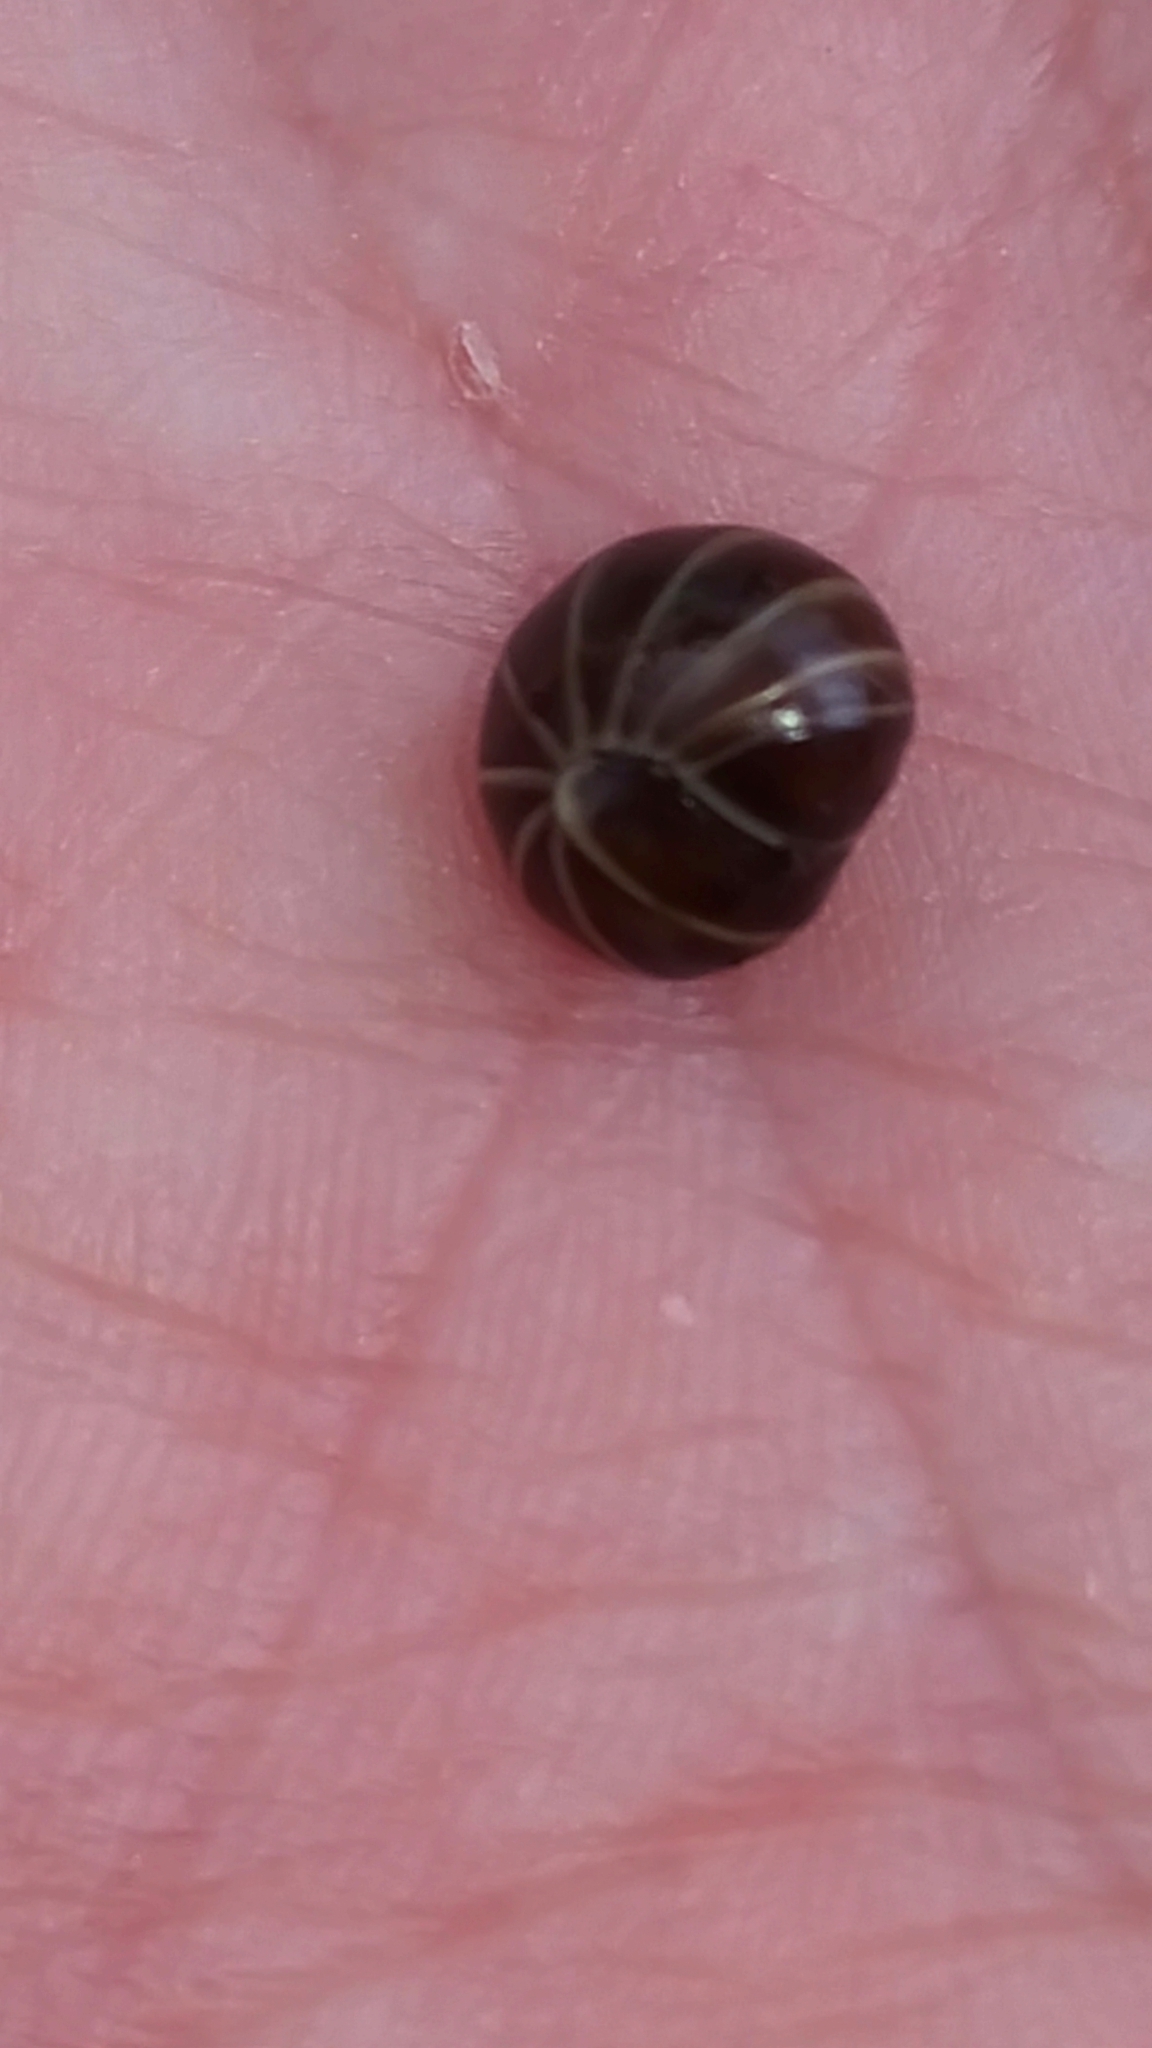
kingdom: Animalia
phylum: Arthropoda
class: Diplopoda
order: Glomerida
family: Glomeridae
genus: Glomeris
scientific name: Glomeris marginata
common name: Bordered pill millipede
